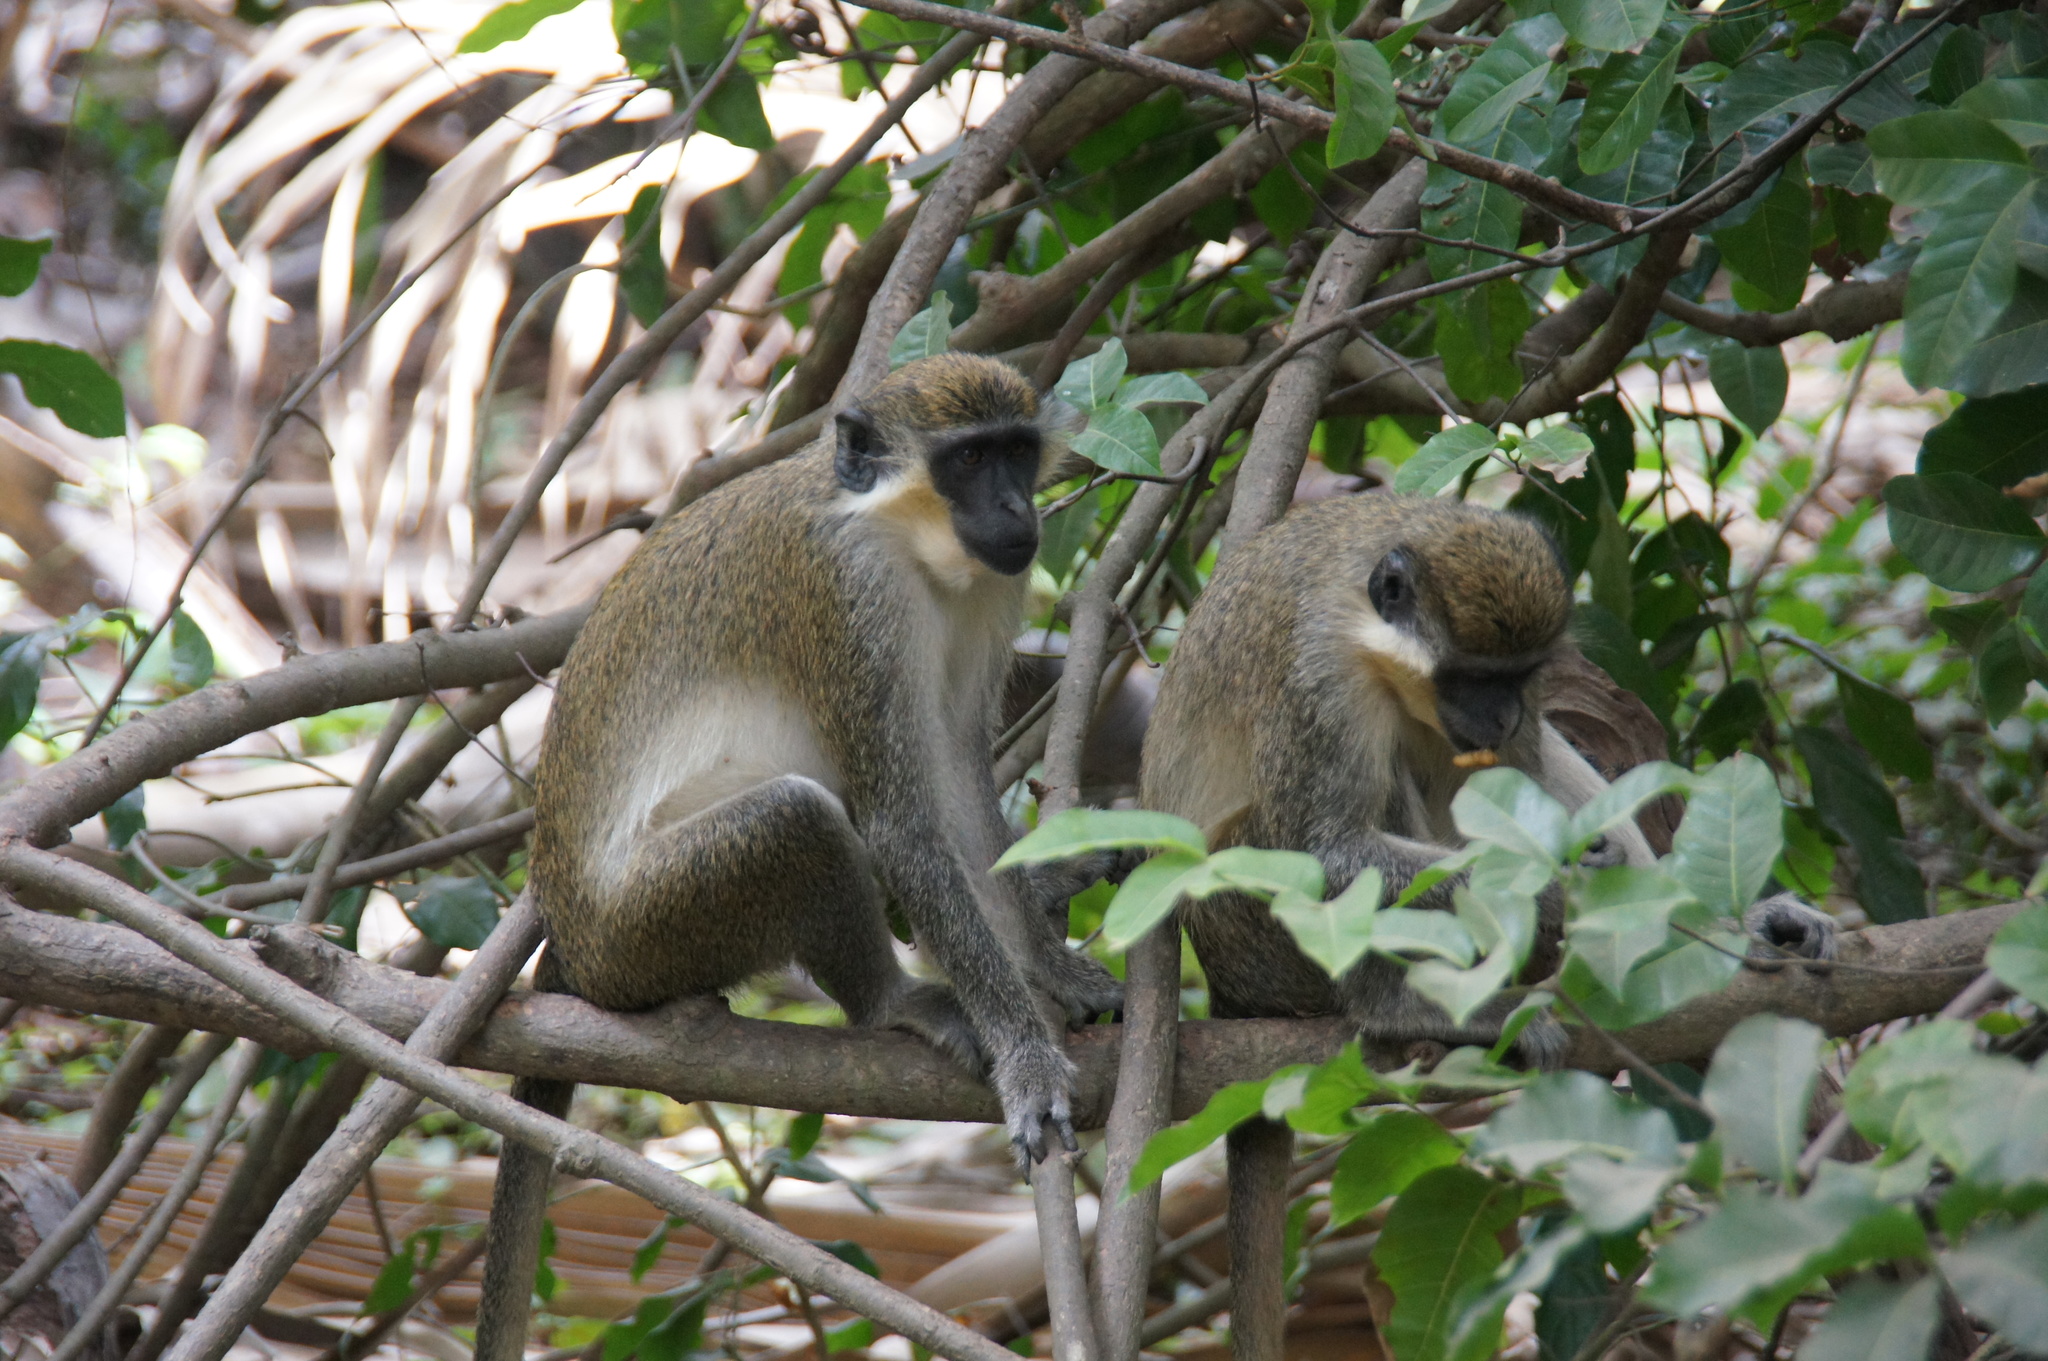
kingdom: Animalia
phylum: Chordata
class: Mammalia
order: Primates
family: Cercopithecidae
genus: Chlorocebus
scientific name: Chlorocebus sabaeus
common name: Green monkey
